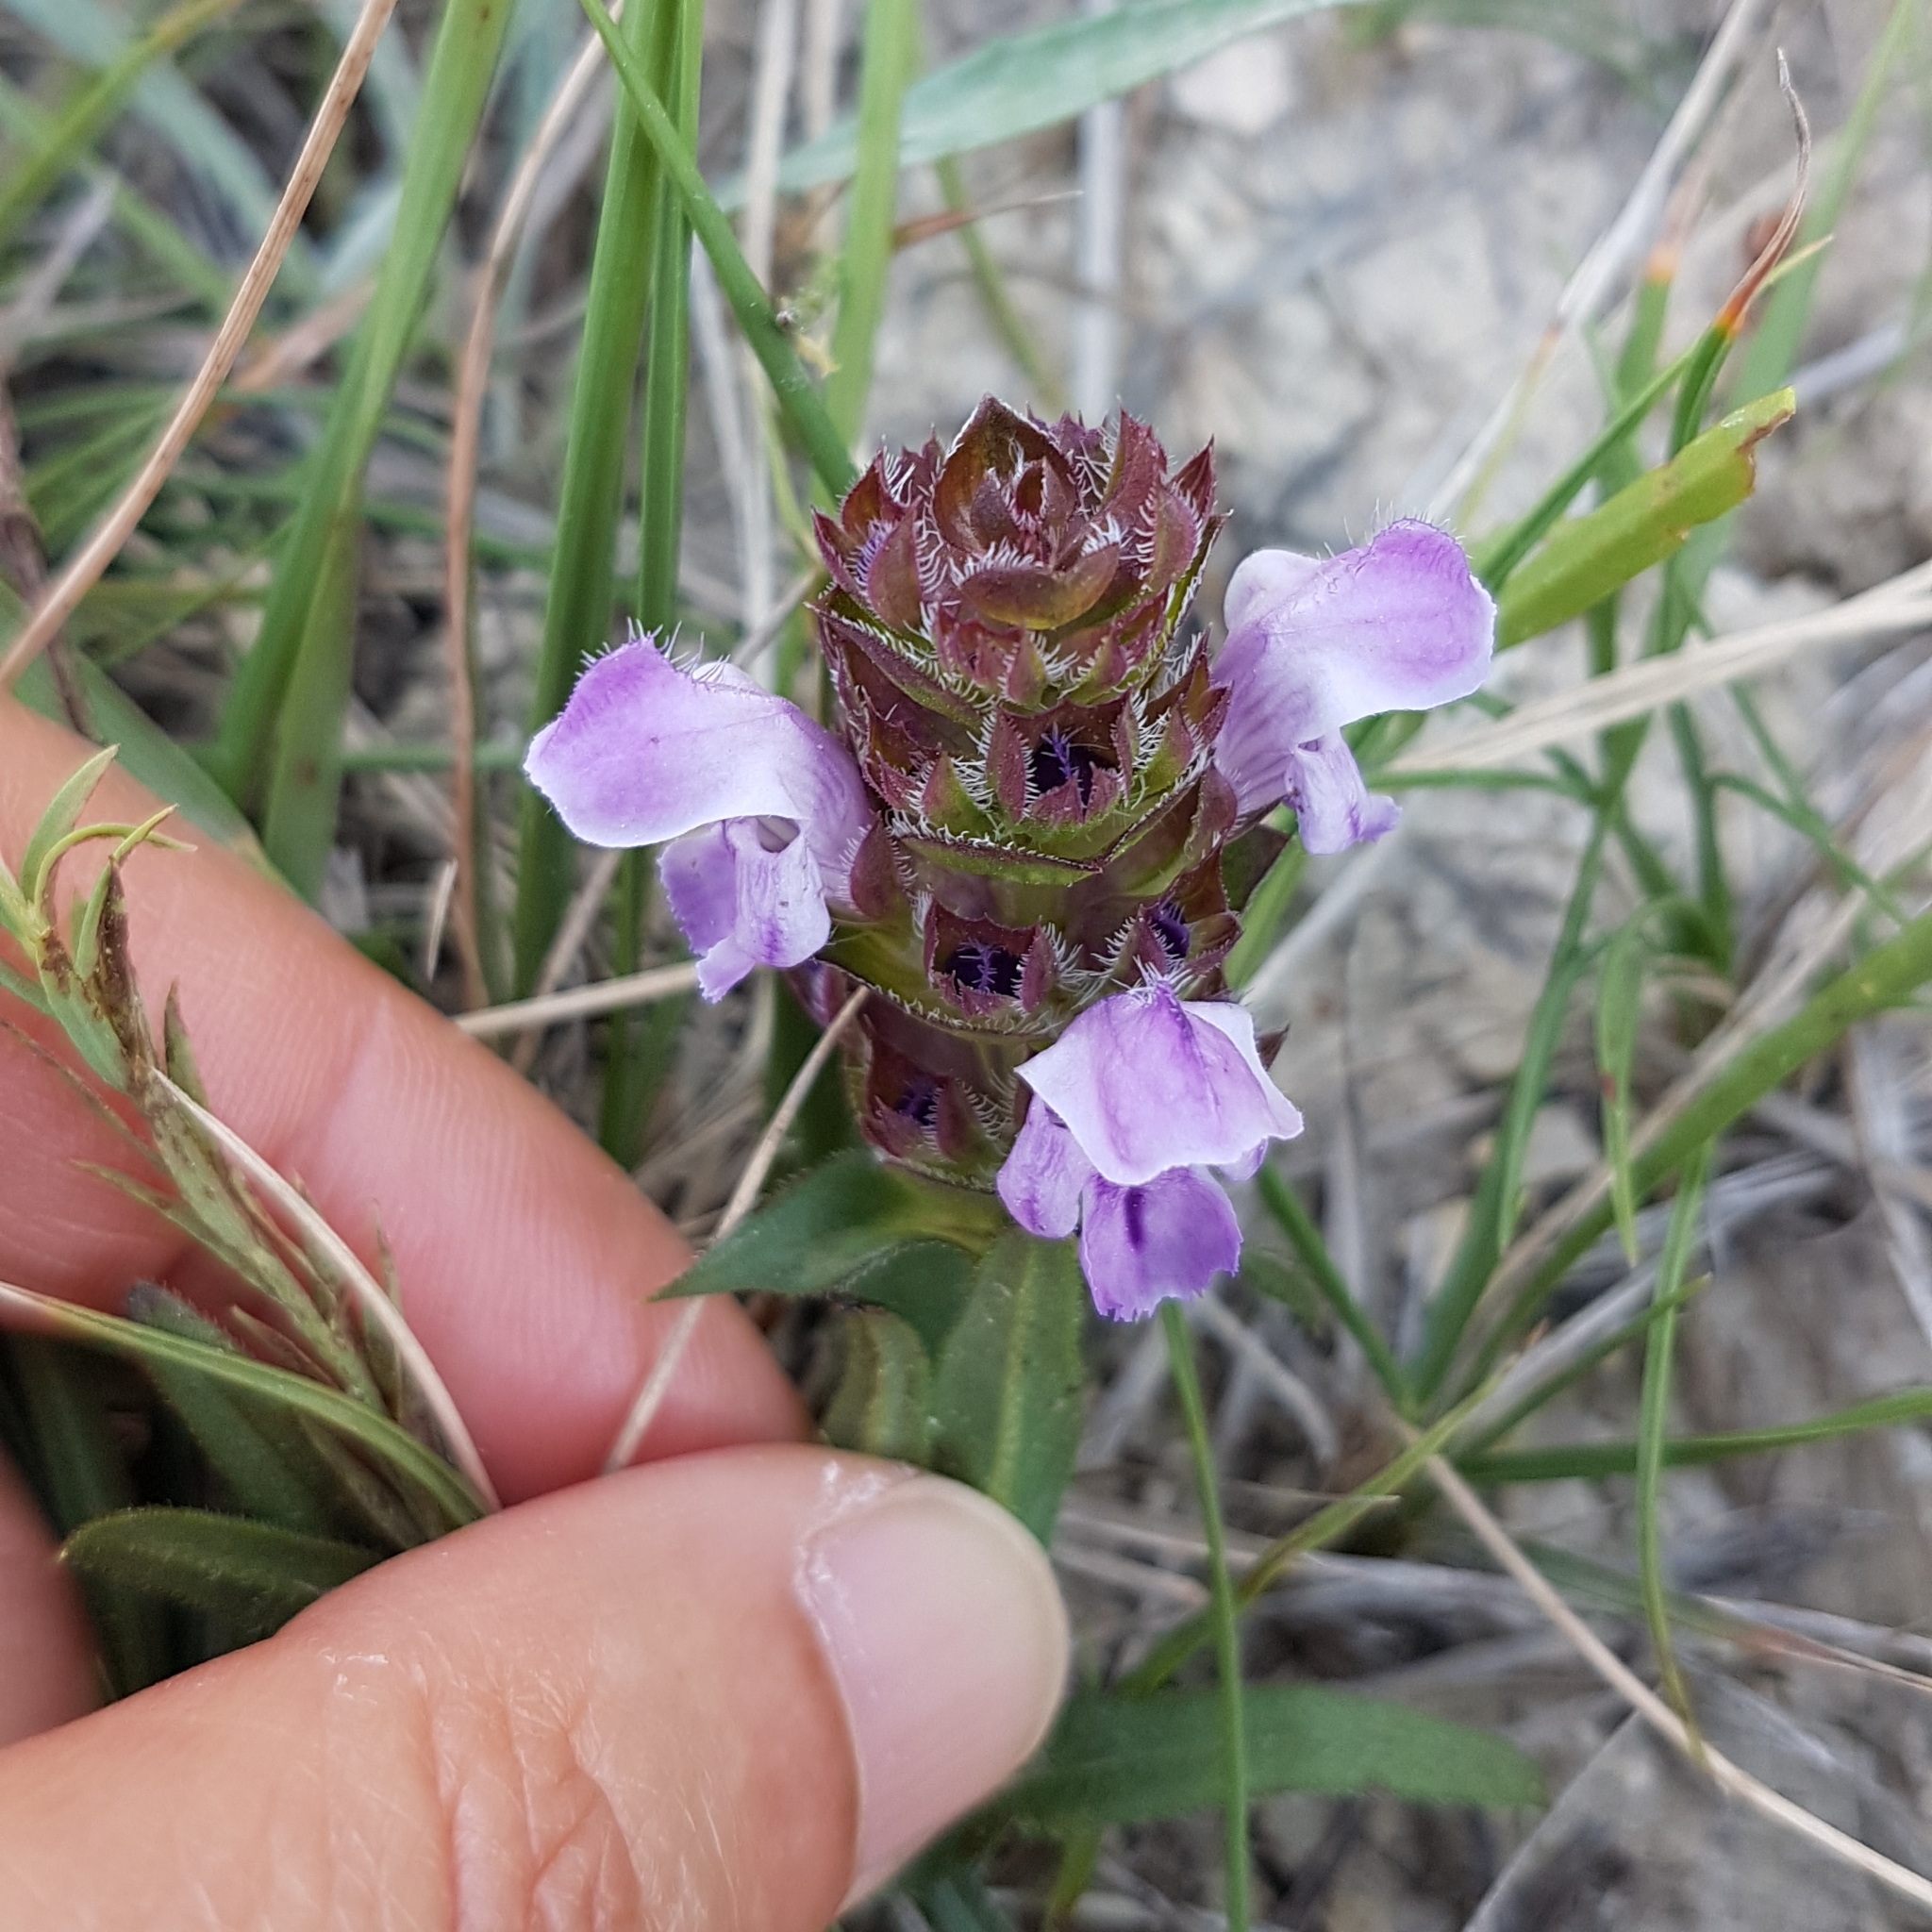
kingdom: Plantae
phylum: Tracheophyta
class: Magnoliopsida
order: Lamiales
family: Lamiaceae
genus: Prunella
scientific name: Prunella hyssopifolia
